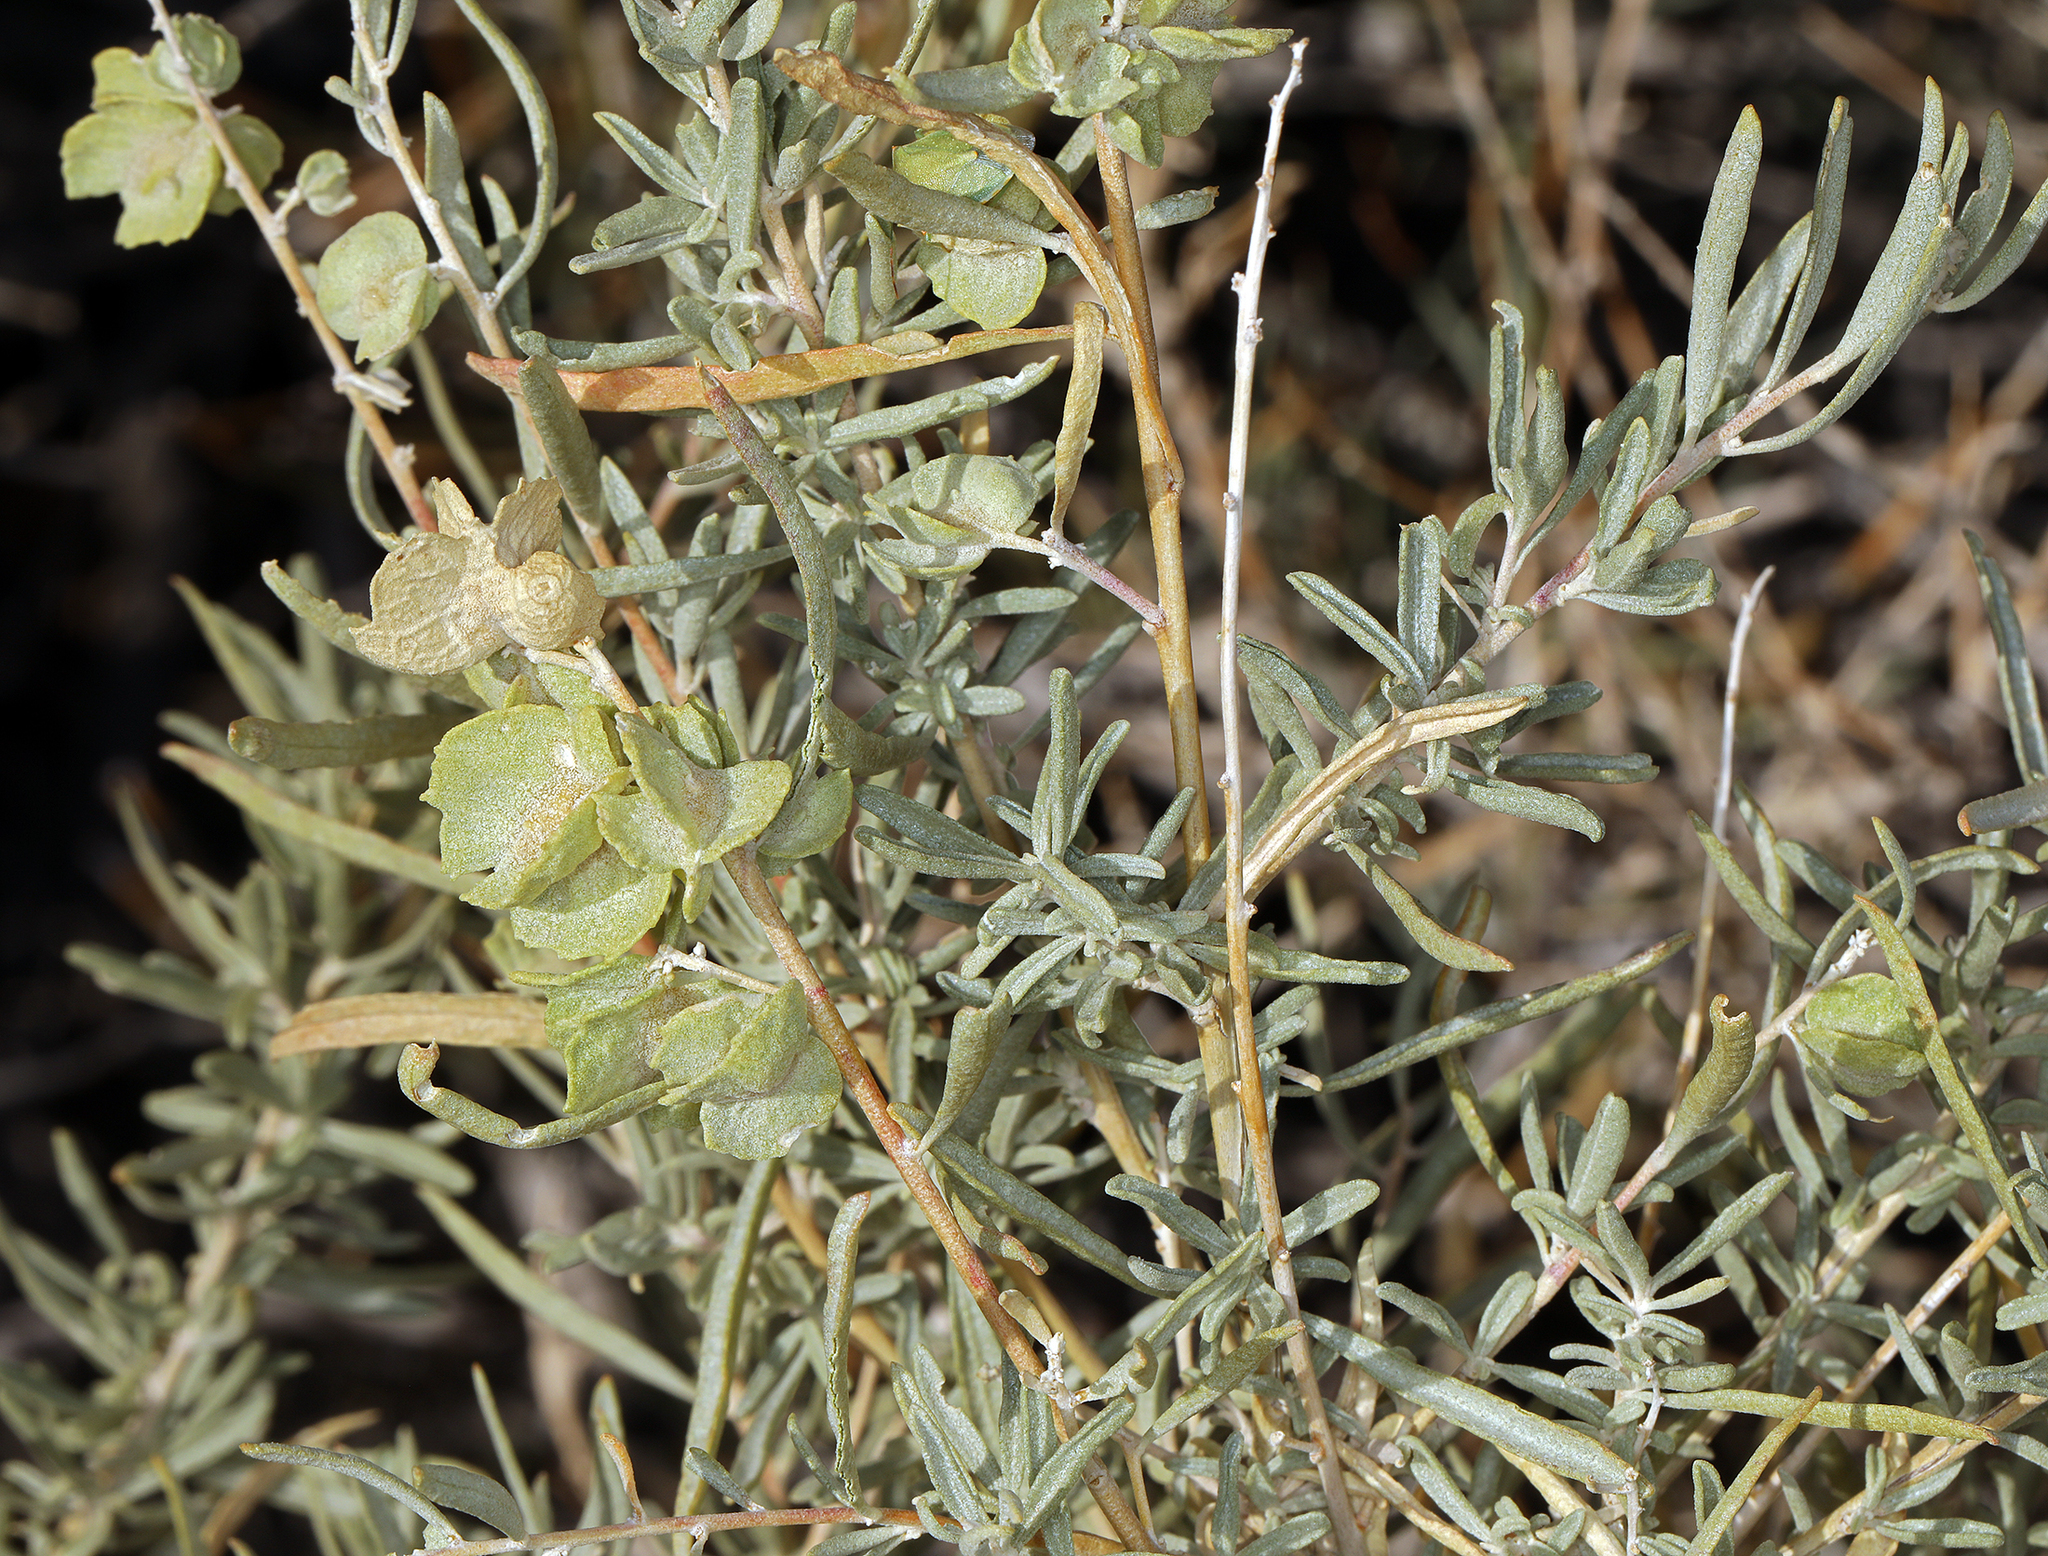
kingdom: Plantae
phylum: Tracheophyta
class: Magnoliopsida
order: Caryophyllales
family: Amaranthaceae
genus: Atriplex
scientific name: Atriplex canescens
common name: Four-wing saltbush
